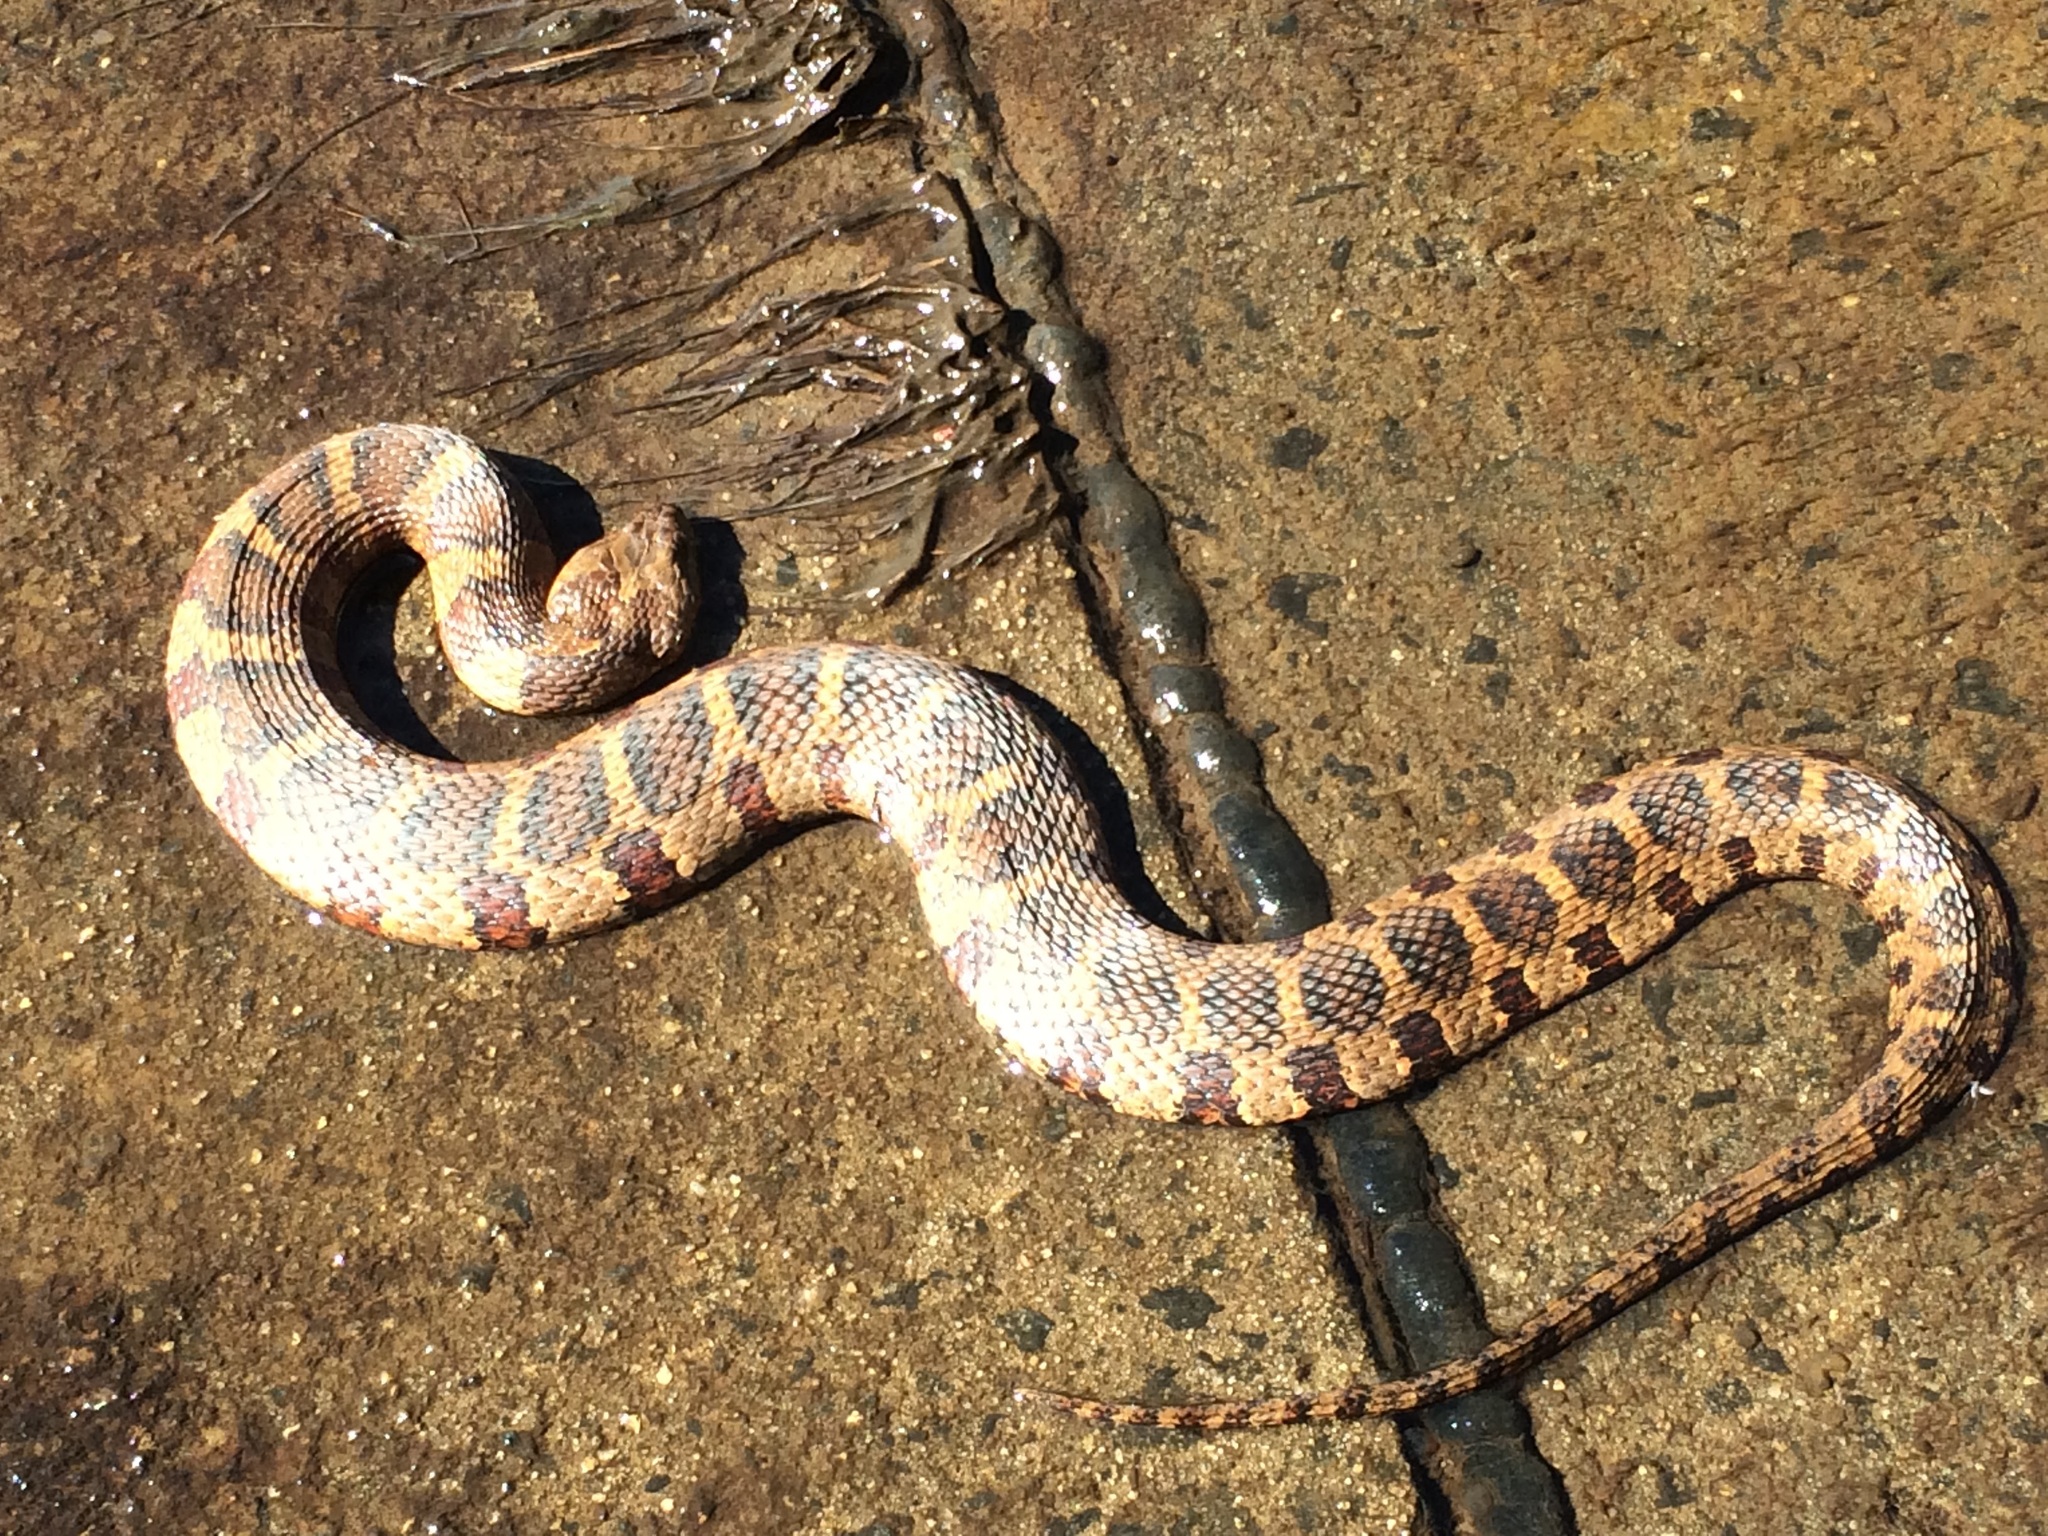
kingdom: Animalia
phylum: Chordata
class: Squamata
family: Colubridae
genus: Nerodia
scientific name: Nerodia sipedon
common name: Northern water snake
